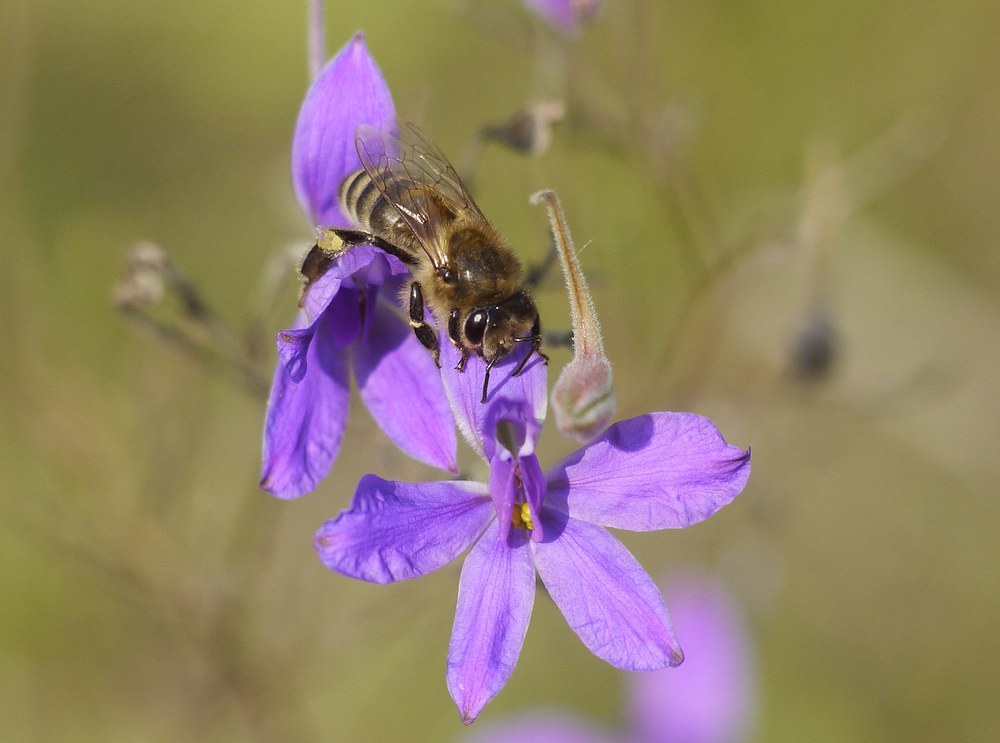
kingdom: Animalia
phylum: Arthropoda
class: Insecta
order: Hymenoptera
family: Apidae
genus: Apis
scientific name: Apis mellifera
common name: Honey bee
